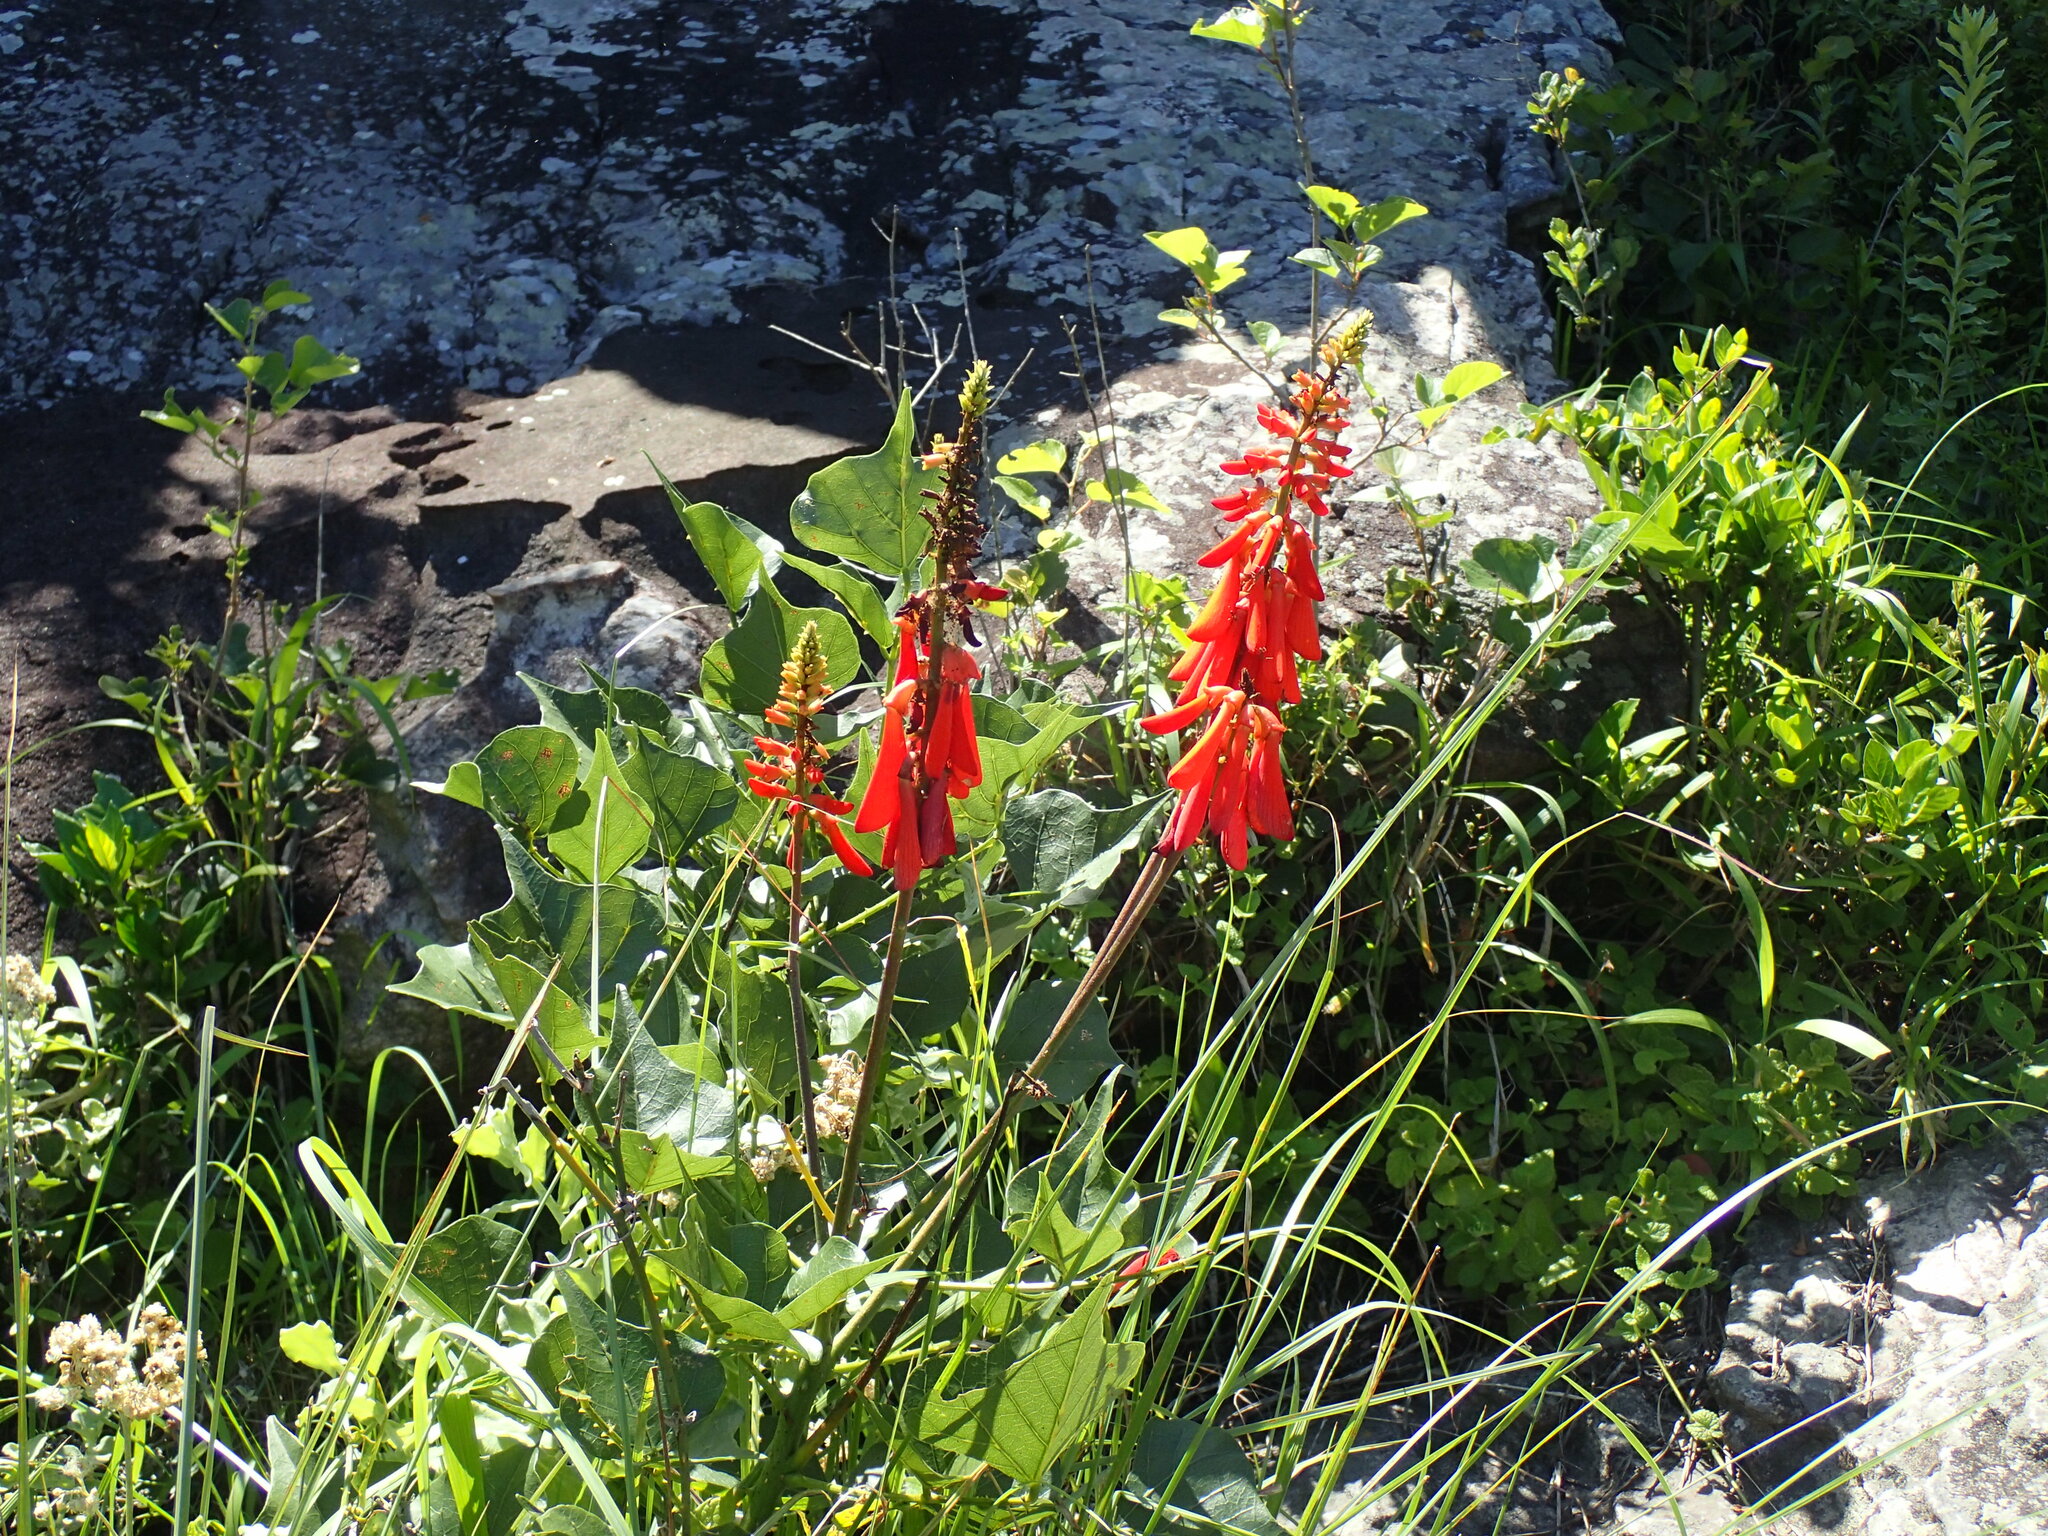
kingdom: Plantae
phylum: Tracheophyta
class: Magnoliopsida
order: Fabales
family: Fabaceae
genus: Erythrina
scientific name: Erythrina humeana
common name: Dwarf coral tree
